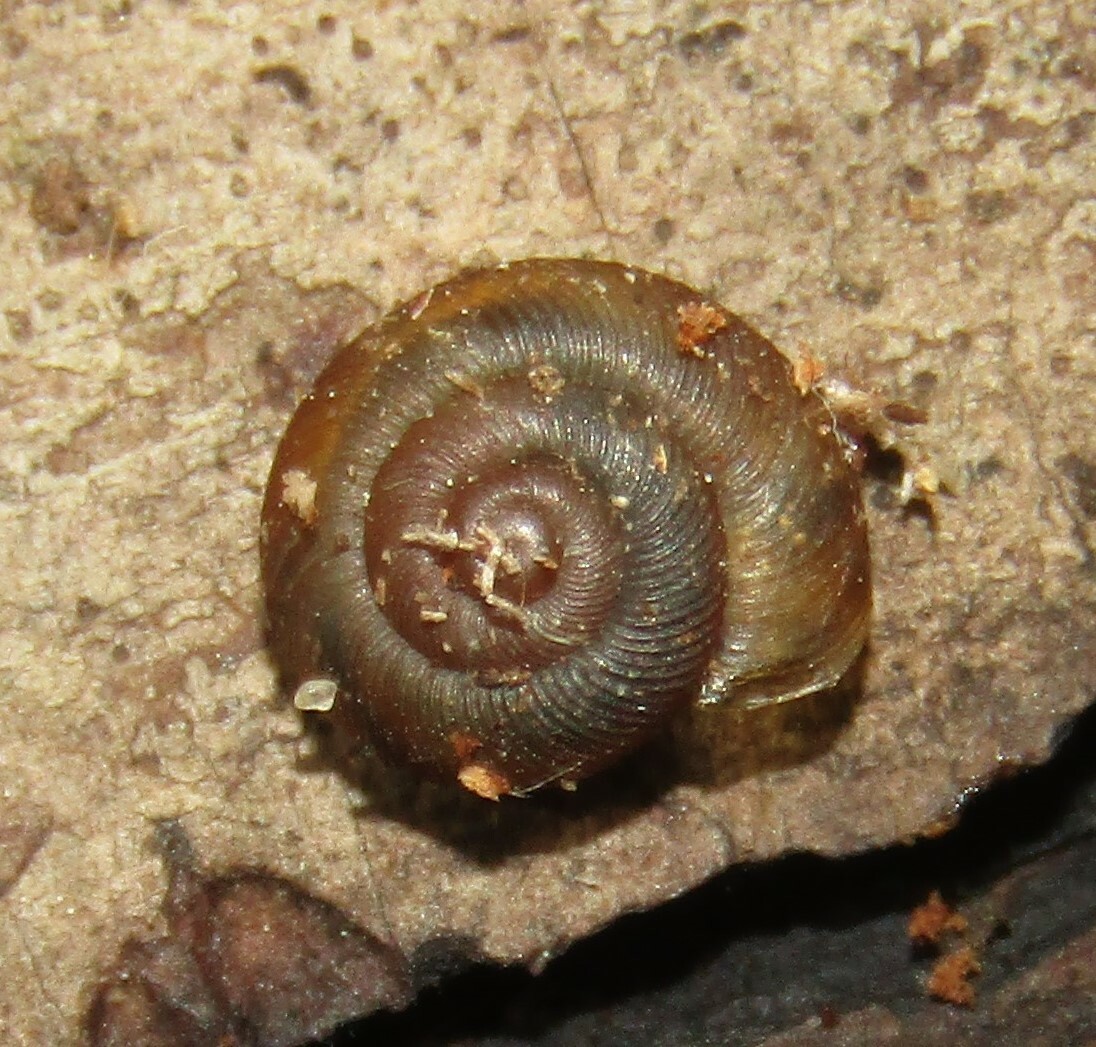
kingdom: Animalia
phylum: Mollusca
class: Gastropoda
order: Stylommatophora
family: Discidae
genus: Discus
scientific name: Discus ruderatus
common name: Brown disc snail
